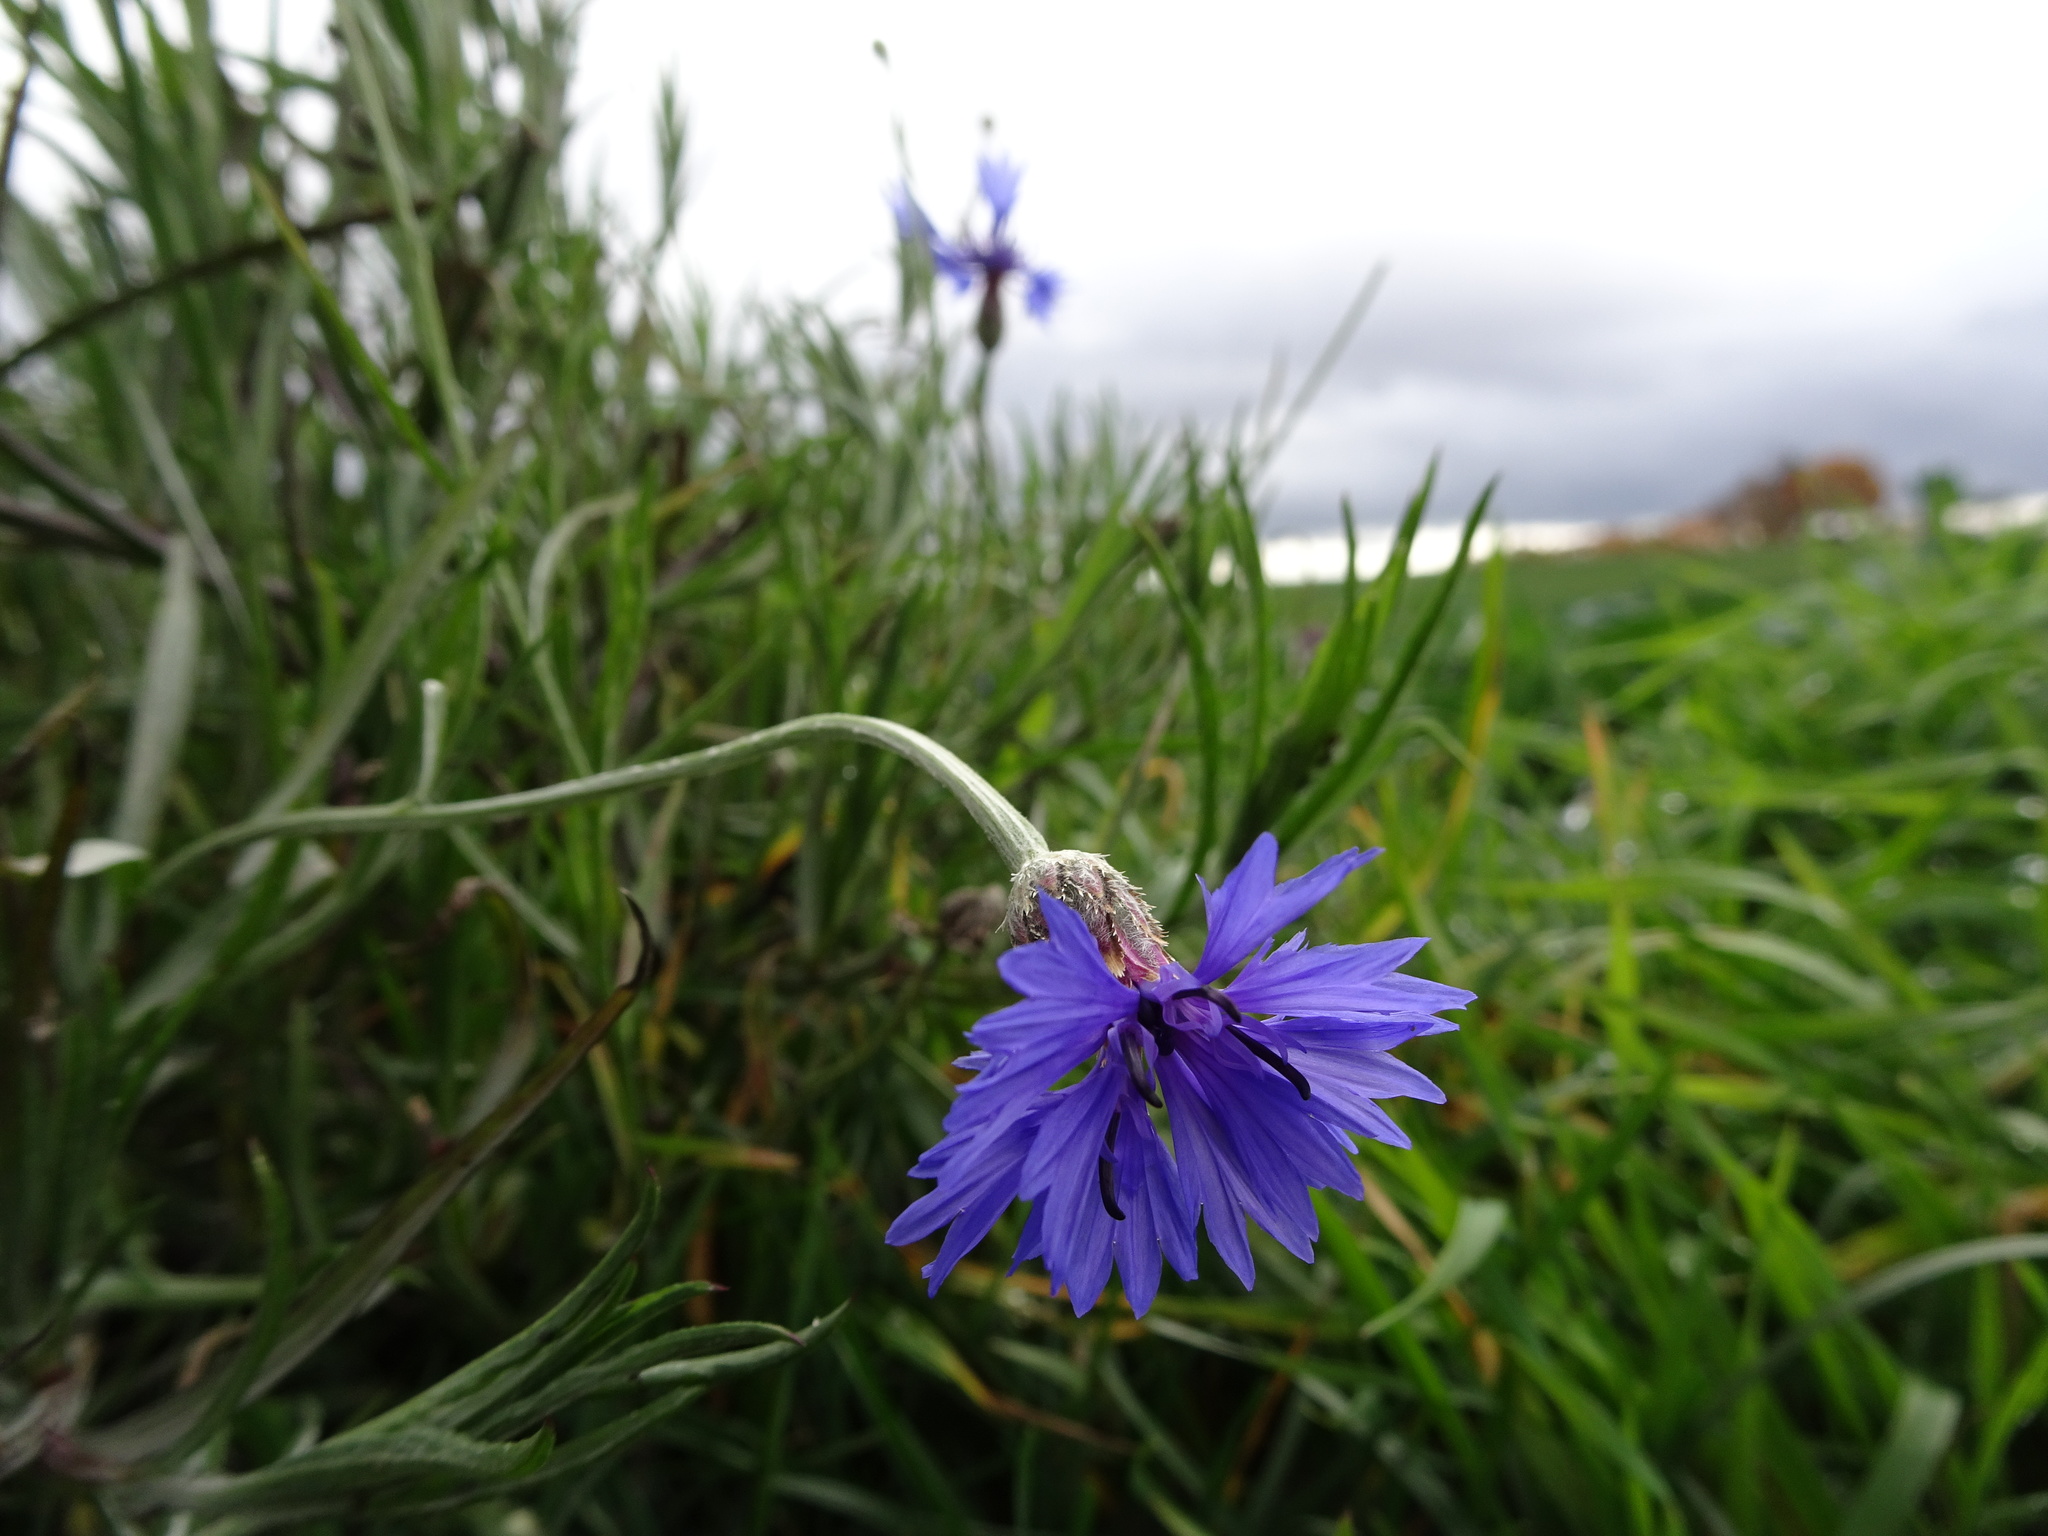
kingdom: Plantae
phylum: Tracheophyta
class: Magnoliopsida
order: Asterales
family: Asteraceae
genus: Centaurea
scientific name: Centaurea cyanus
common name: Cornflower
